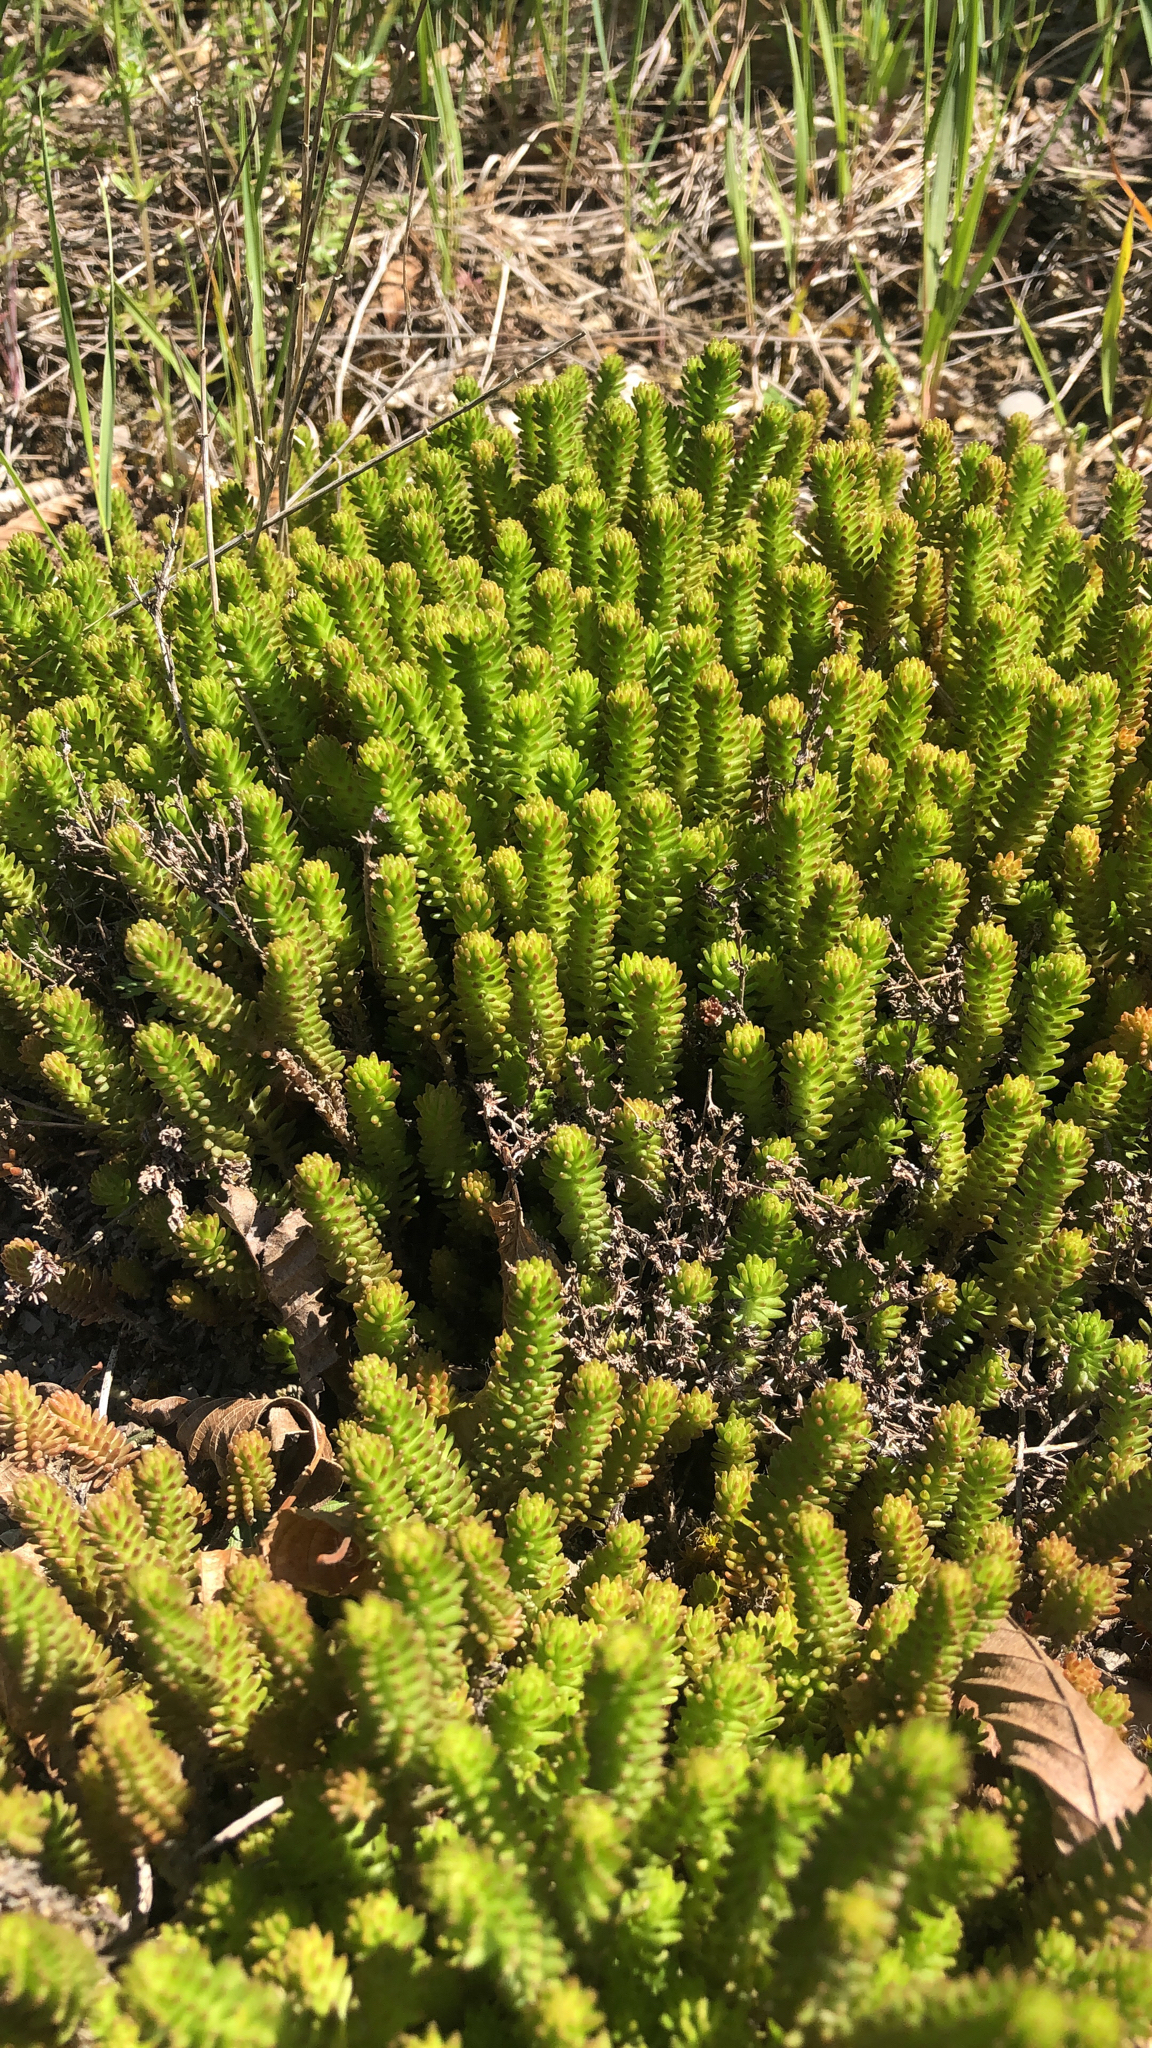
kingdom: Plantae
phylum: Tracheophyta
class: Magnoliopsida
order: Saxifragales
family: Crassulaceae
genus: Sedum
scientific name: Sedum sexangulare
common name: Tasteless stonecrop
